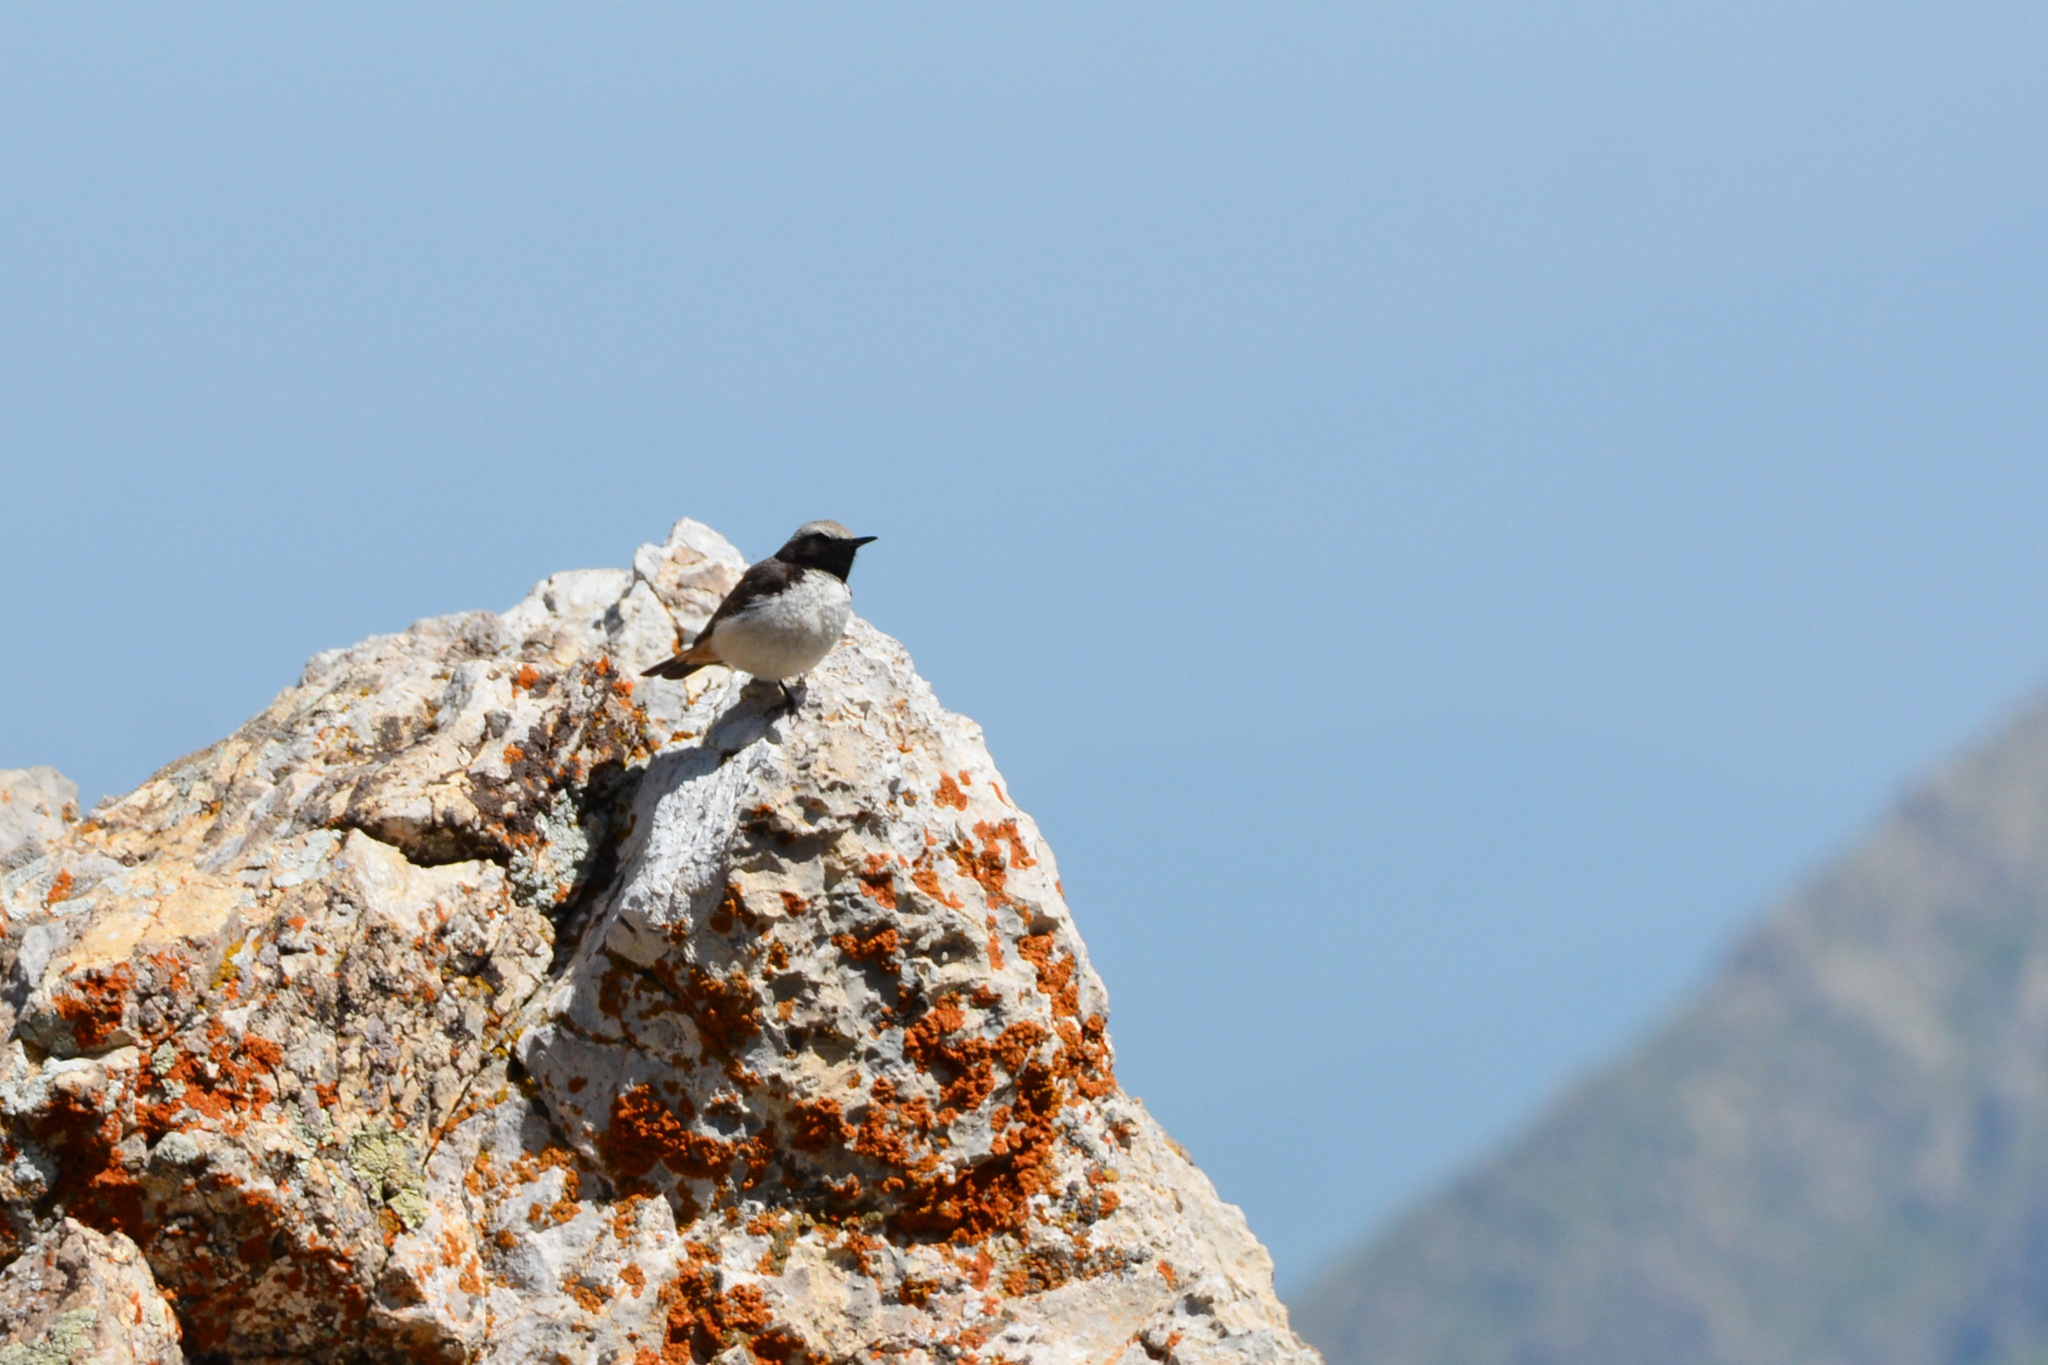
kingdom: Animalia
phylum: Chordata
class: Aves
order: Passeriformes
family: Muscicapidae
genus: Oenanthe
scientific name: Oenanthe xanthoprymna
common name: Kurdish wheatear
